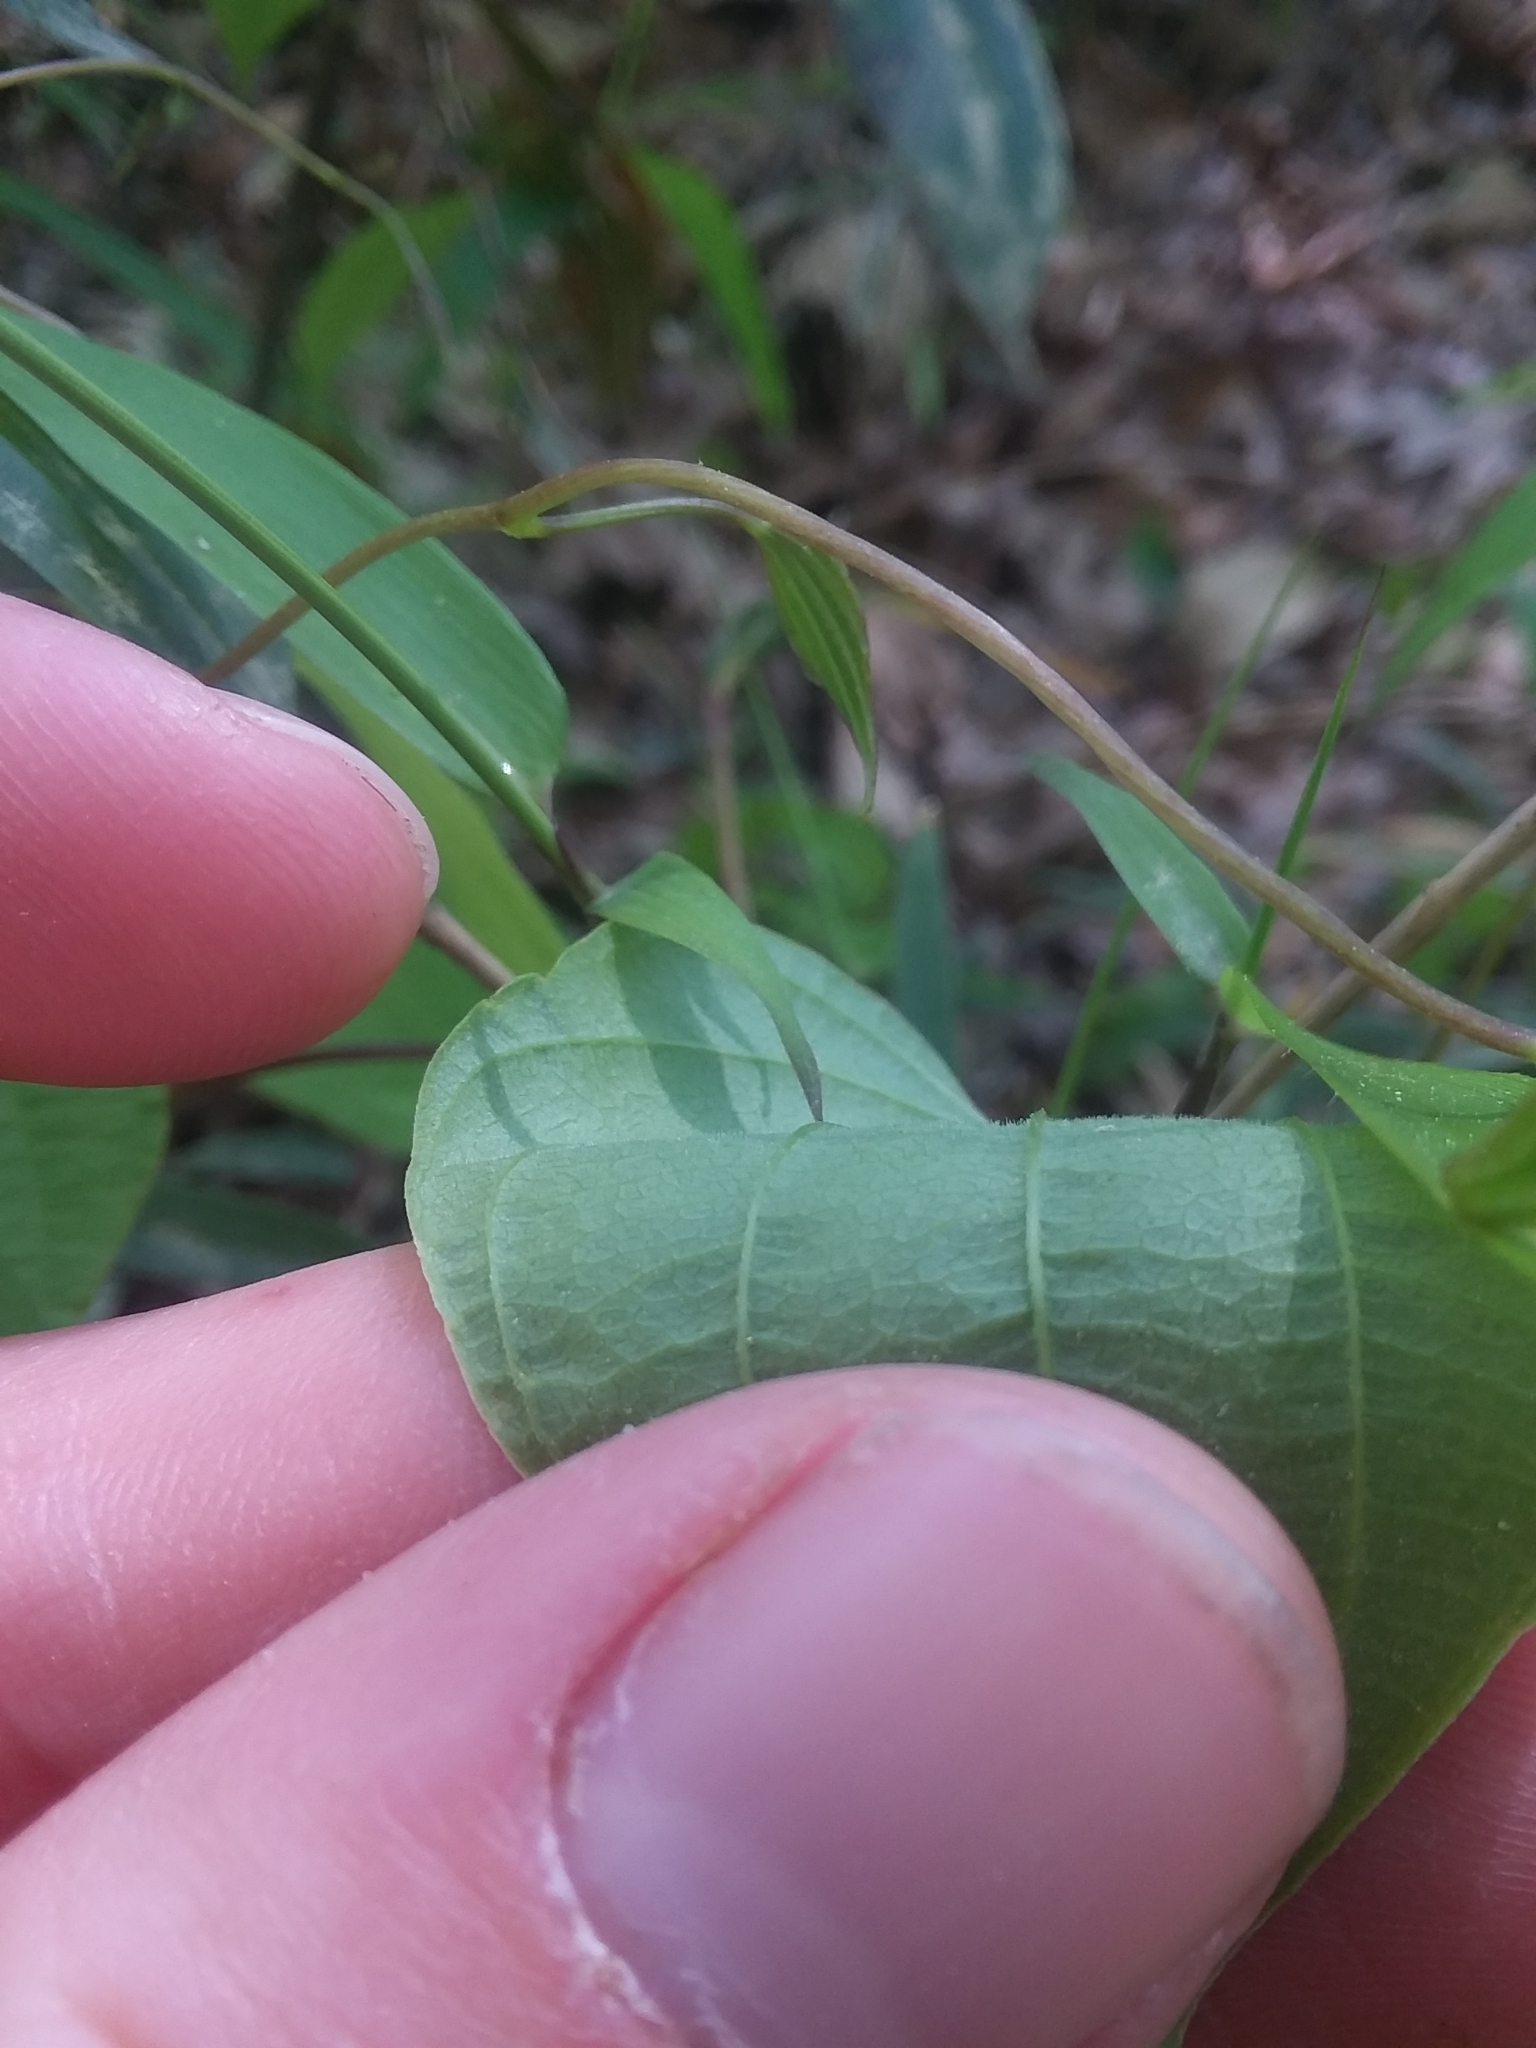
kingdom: Plantae
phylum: Tracheophyta
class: Liliopsida
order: Dioscoreales
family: Dioscoreaceae
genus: Dioscorea
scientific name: Dioscorea villosa
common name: Wild yam
